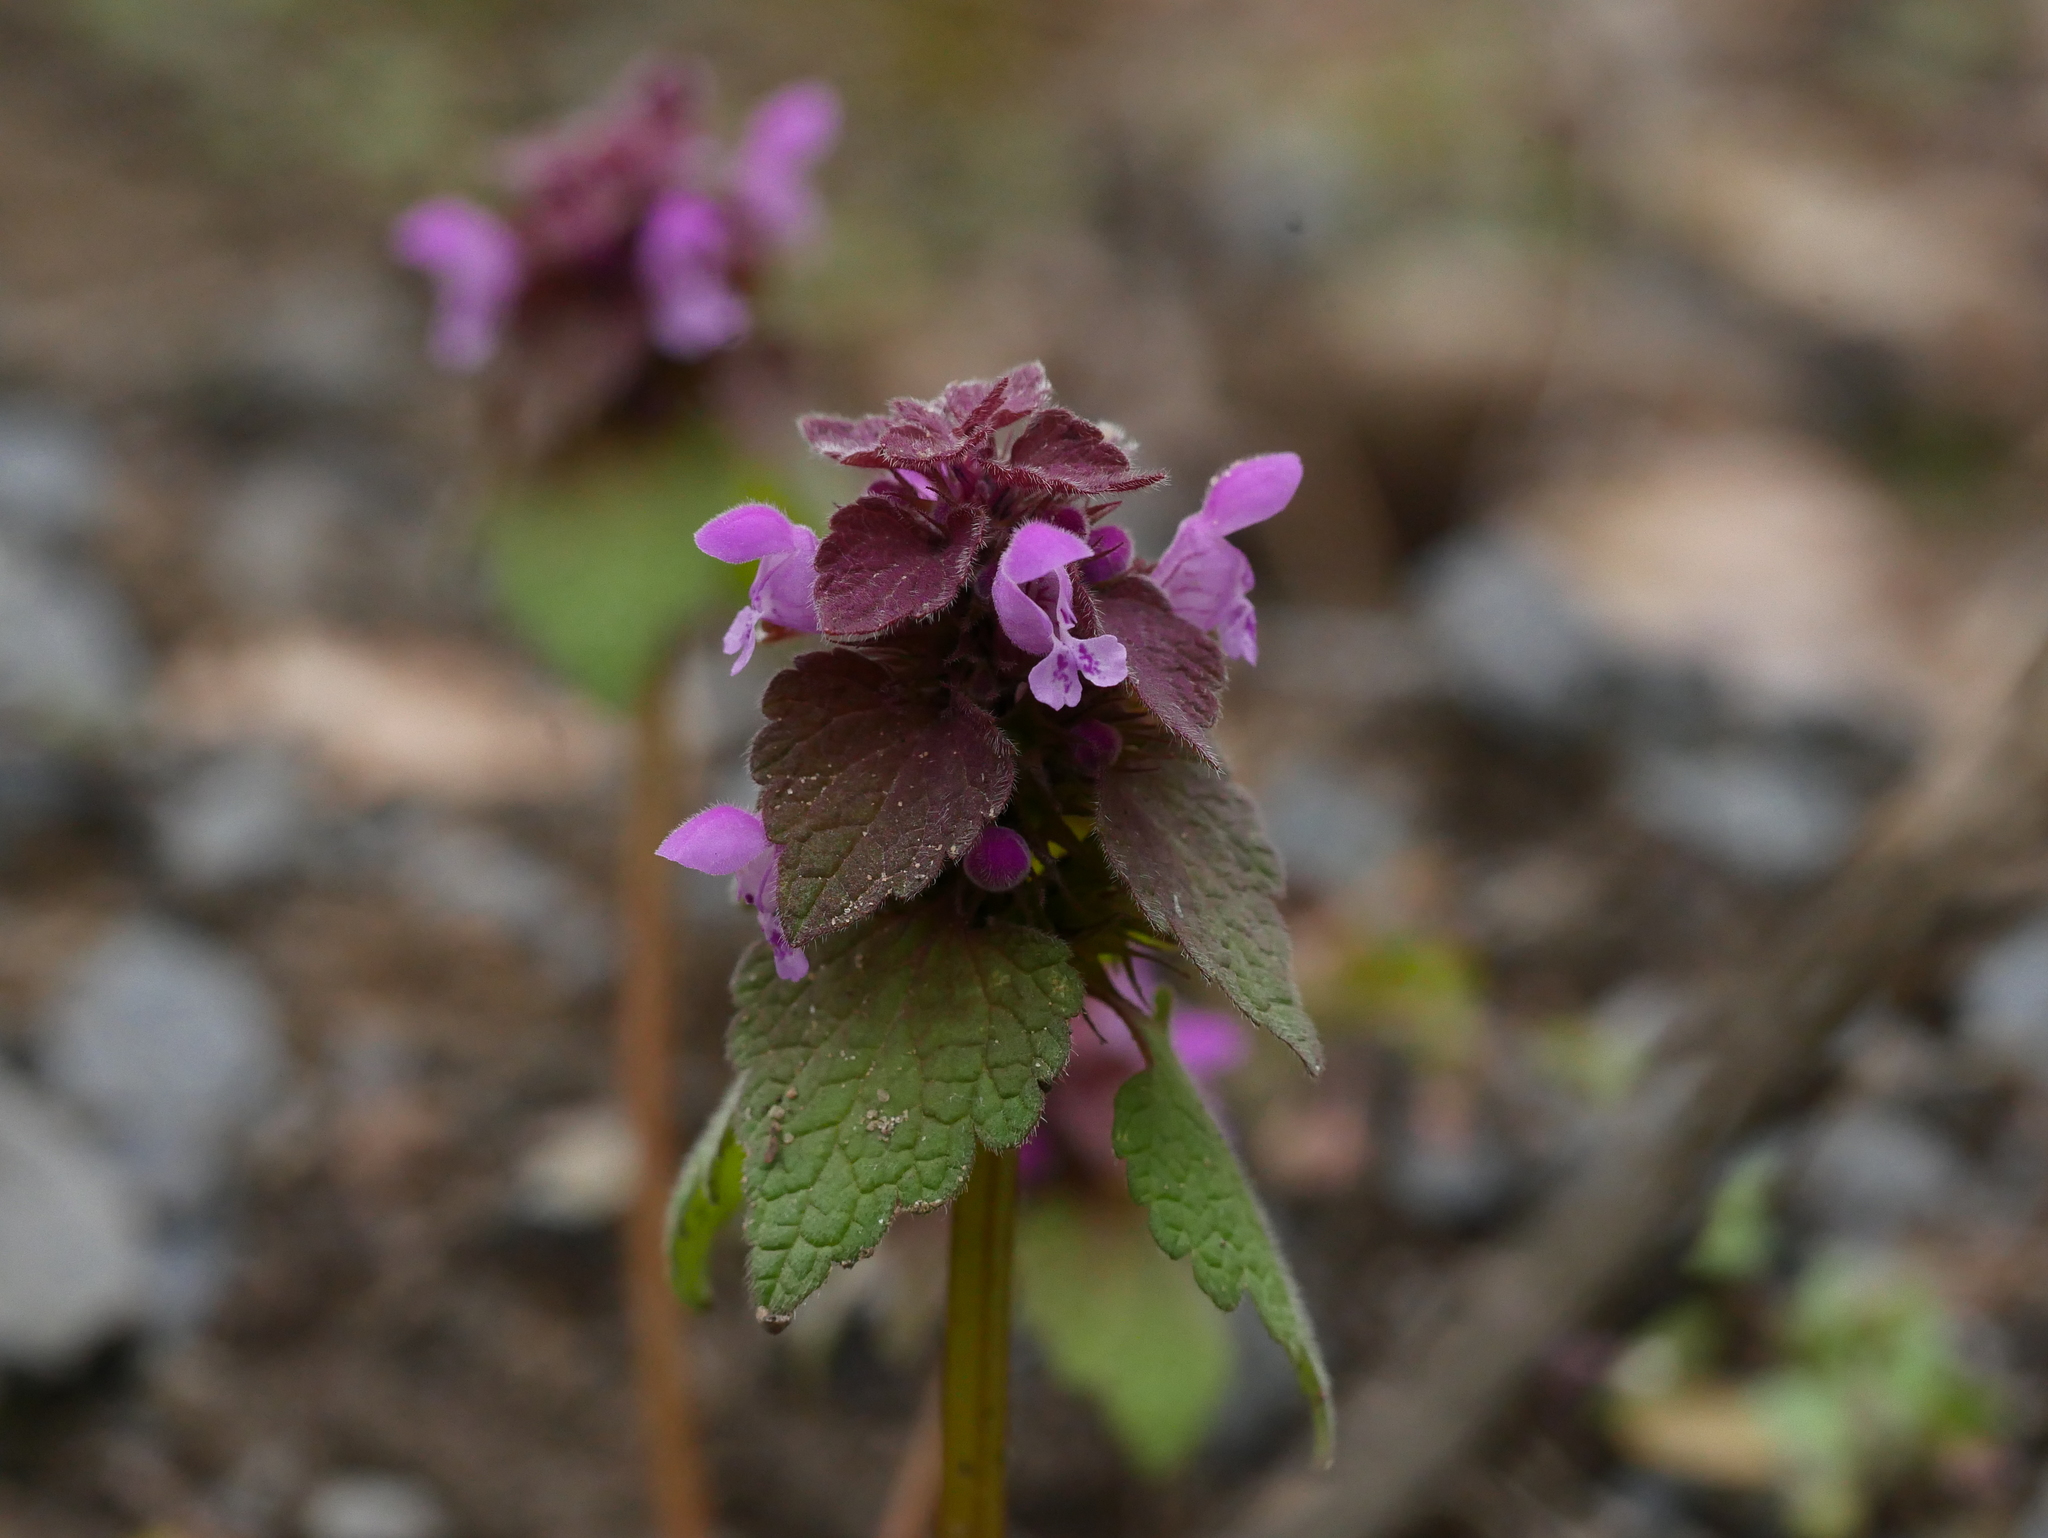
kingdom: Plantae
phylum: Tracheophyta
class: Magnoliopsida
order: Lamiales
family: Lamiaceae
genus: Lamium
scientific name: Lamium purpureum
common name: Red dead-nettle
